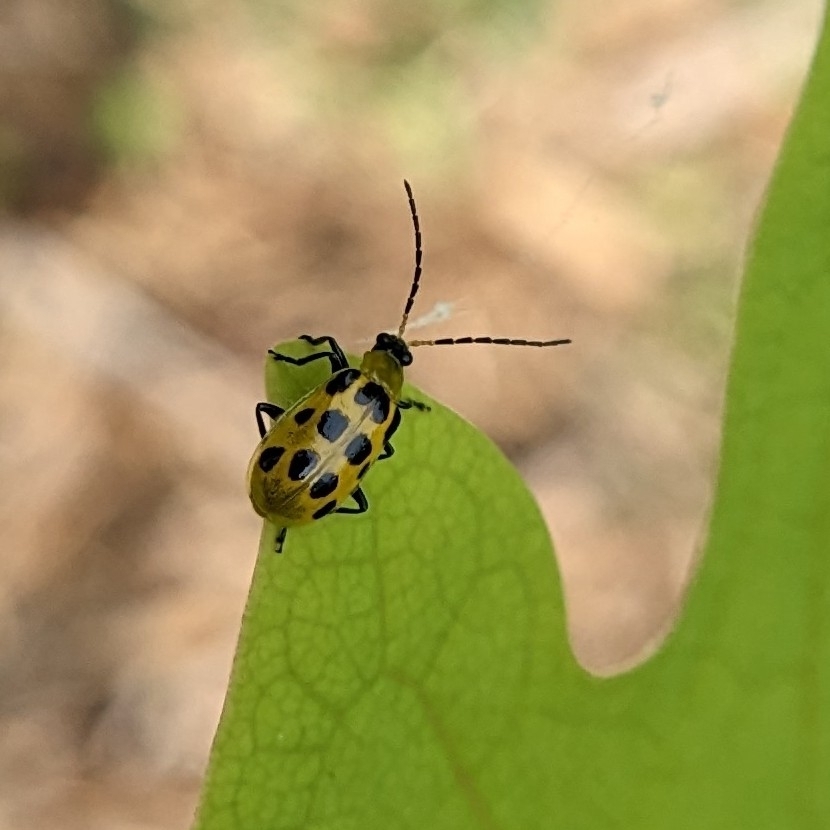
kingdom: Animalia
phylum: Arthropoda
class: Insecta
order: Coleoptera
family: Chrysomelidae
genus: Diabrotica
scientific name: Diabrotica undecimpunctata
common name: Spotted cucumber beetle
